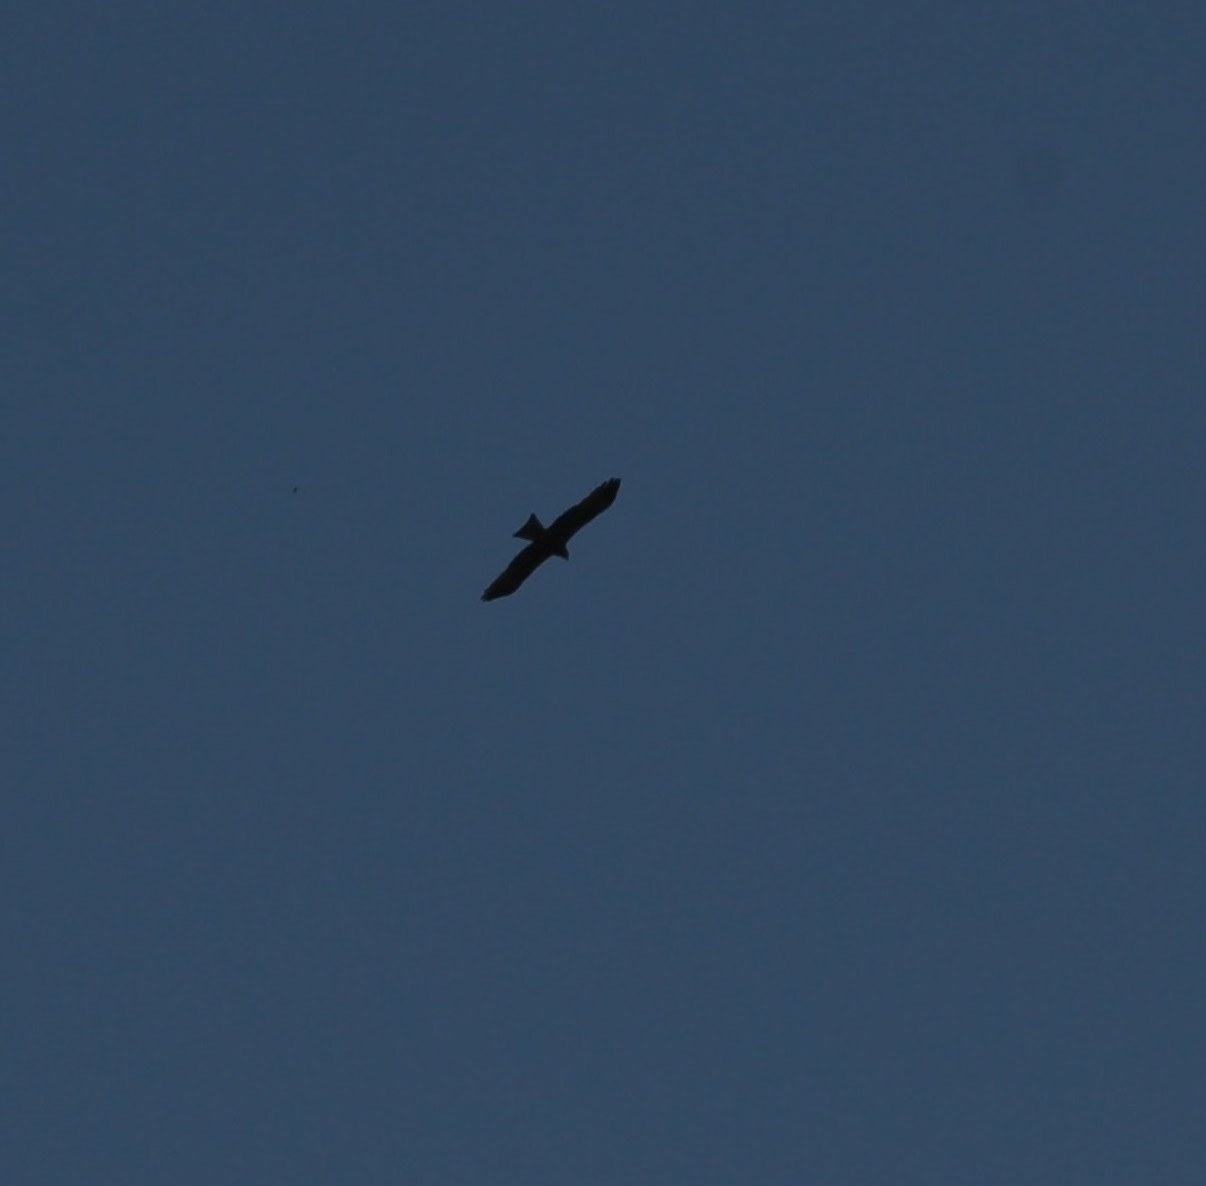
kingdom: Animalia
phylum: Chordata
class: Aves
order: Accipitriformes
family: Accipitridae
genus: Milvus
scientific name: Milvus migrans
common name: Black kite
